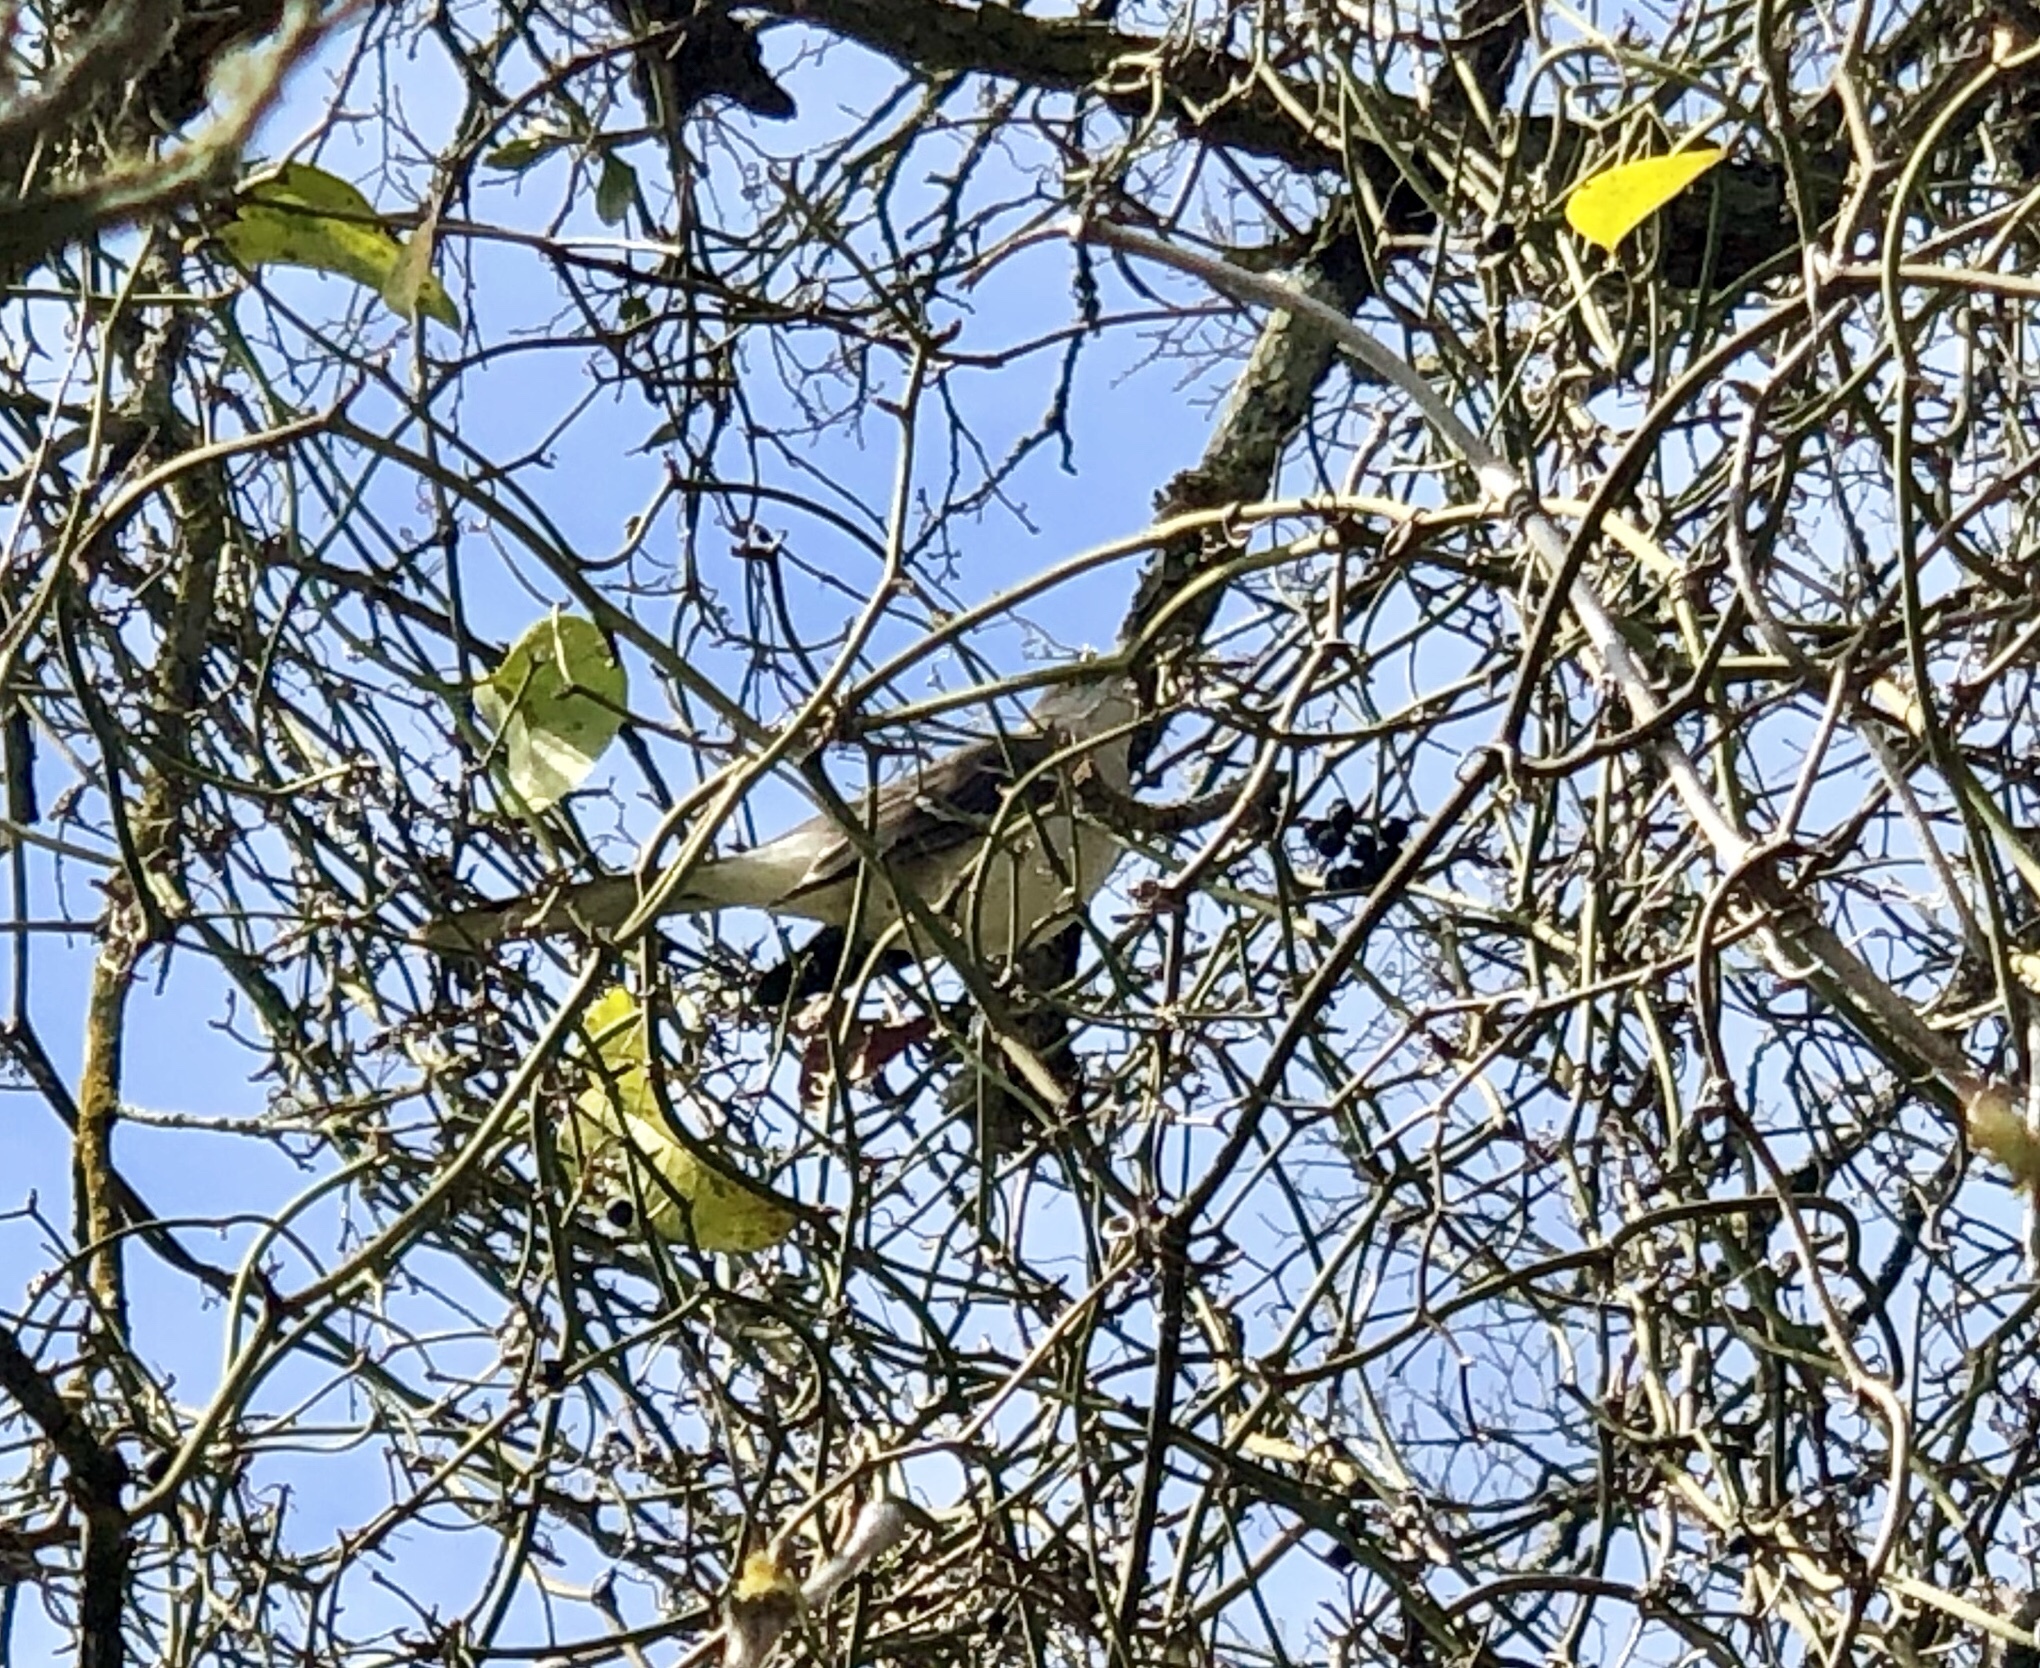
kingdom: Animalia
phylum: Chordata
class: Aves
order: Passeriformes
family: Mimidae
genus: Mimus
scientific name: Mimus polyglottos
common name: Northern mockingbird
